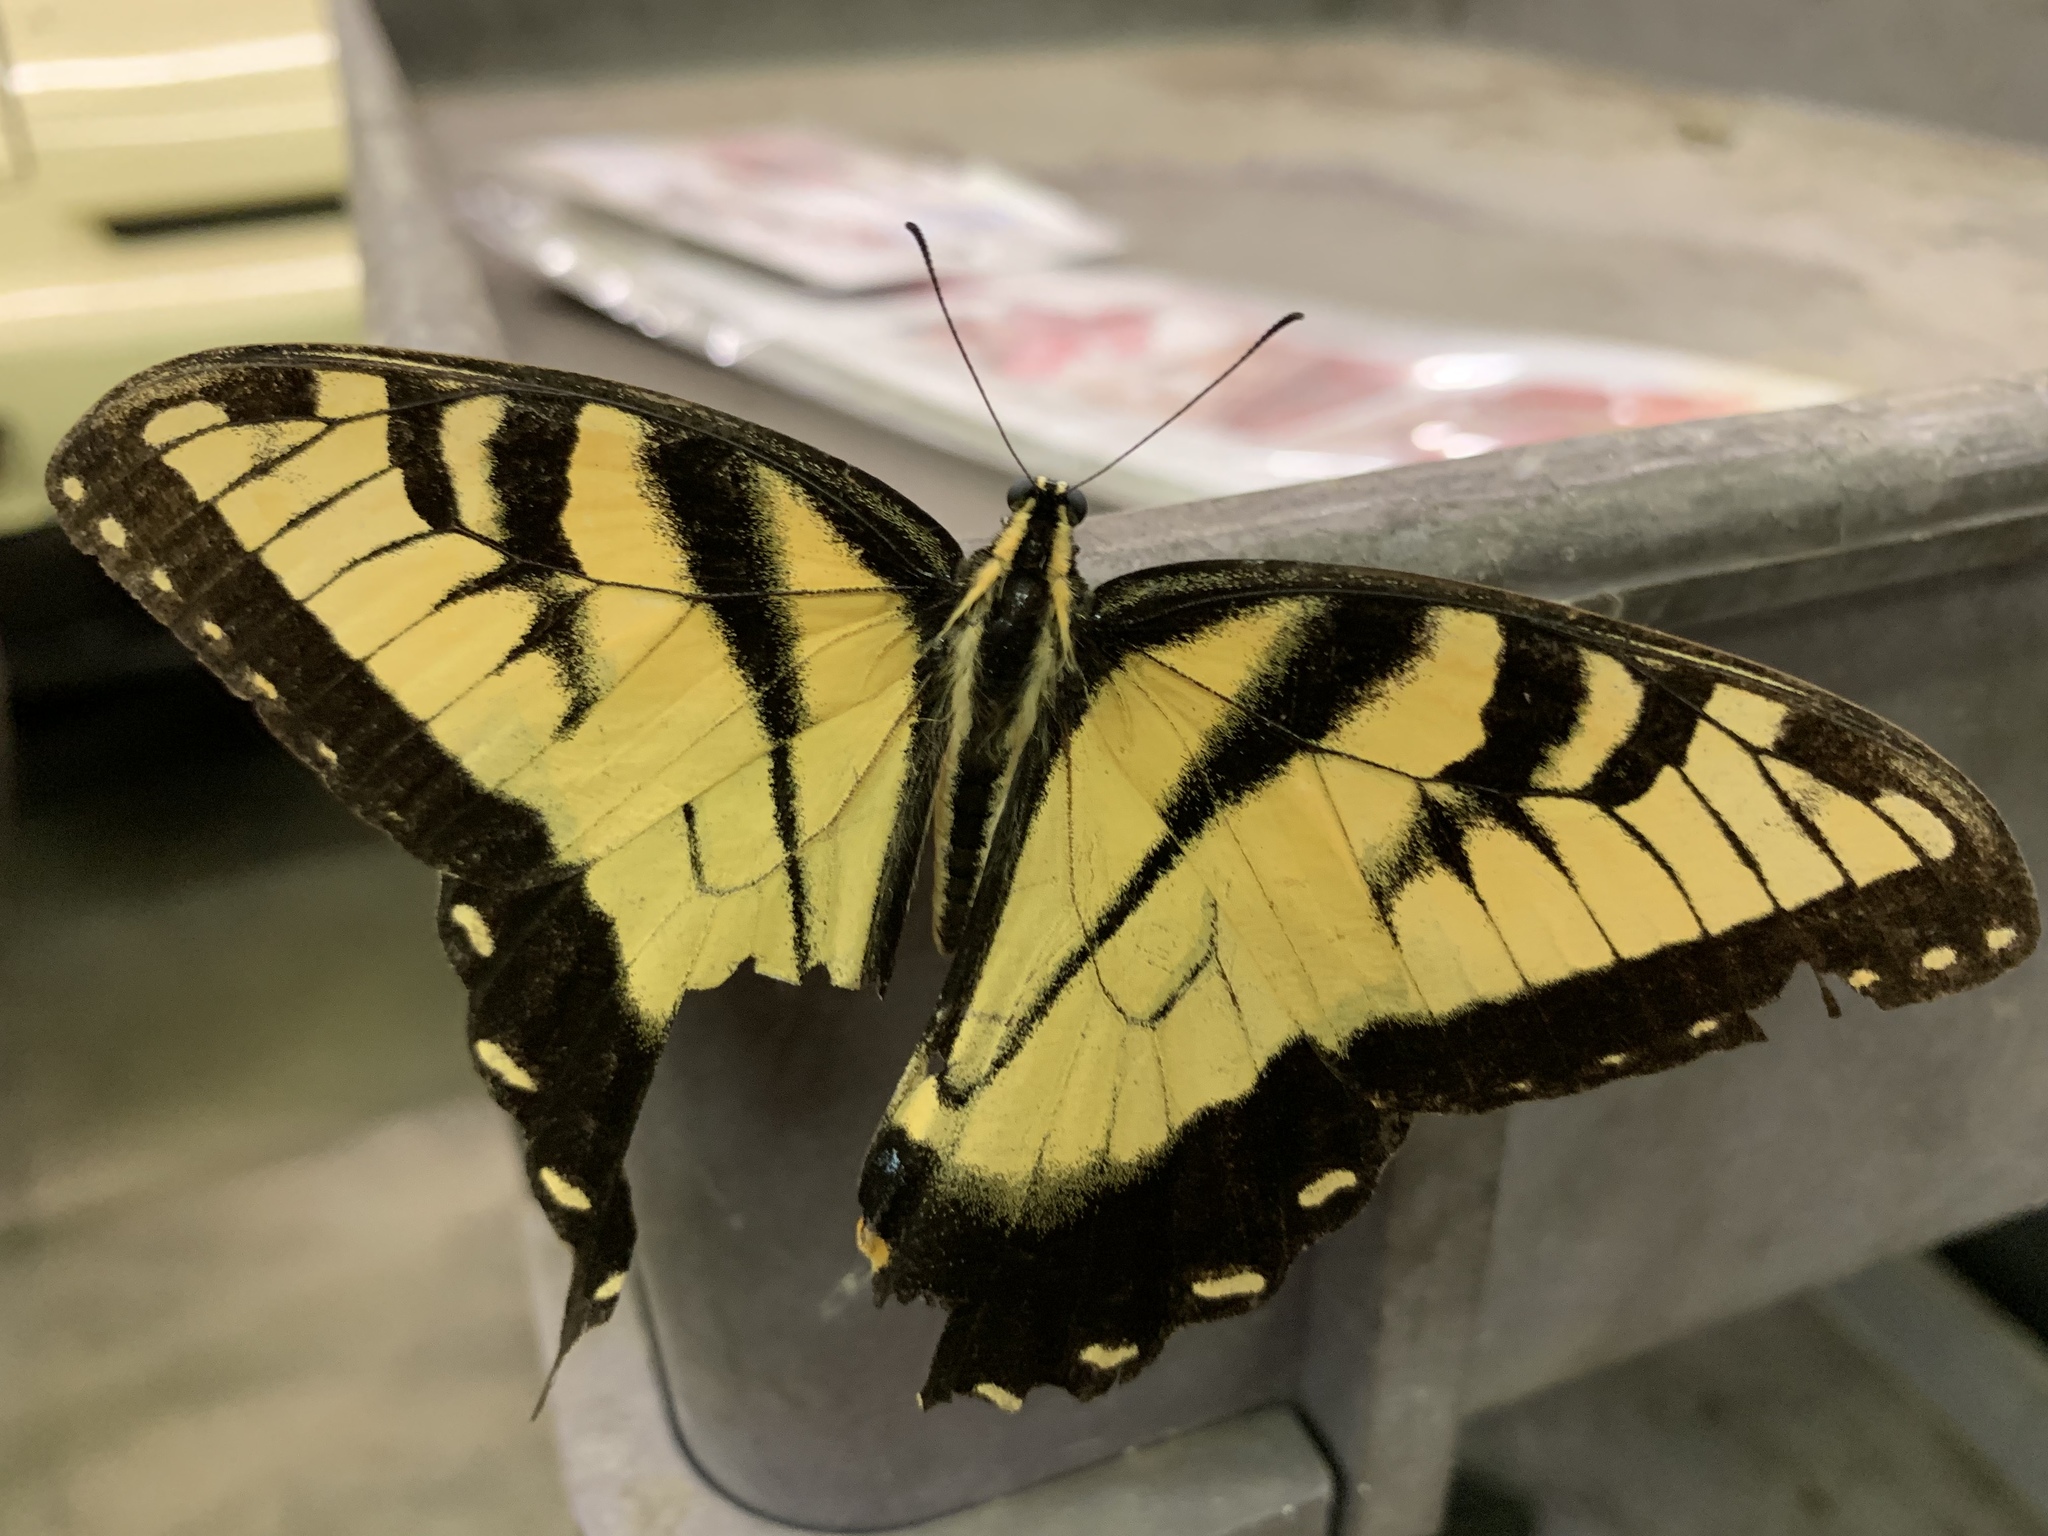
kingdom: Animalia
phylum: Arthropoda
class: Insecta
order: Lepidoptera
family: Papilionidae
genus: Papilio
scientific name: Papilio glaucus
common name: Tiger swallowtail
